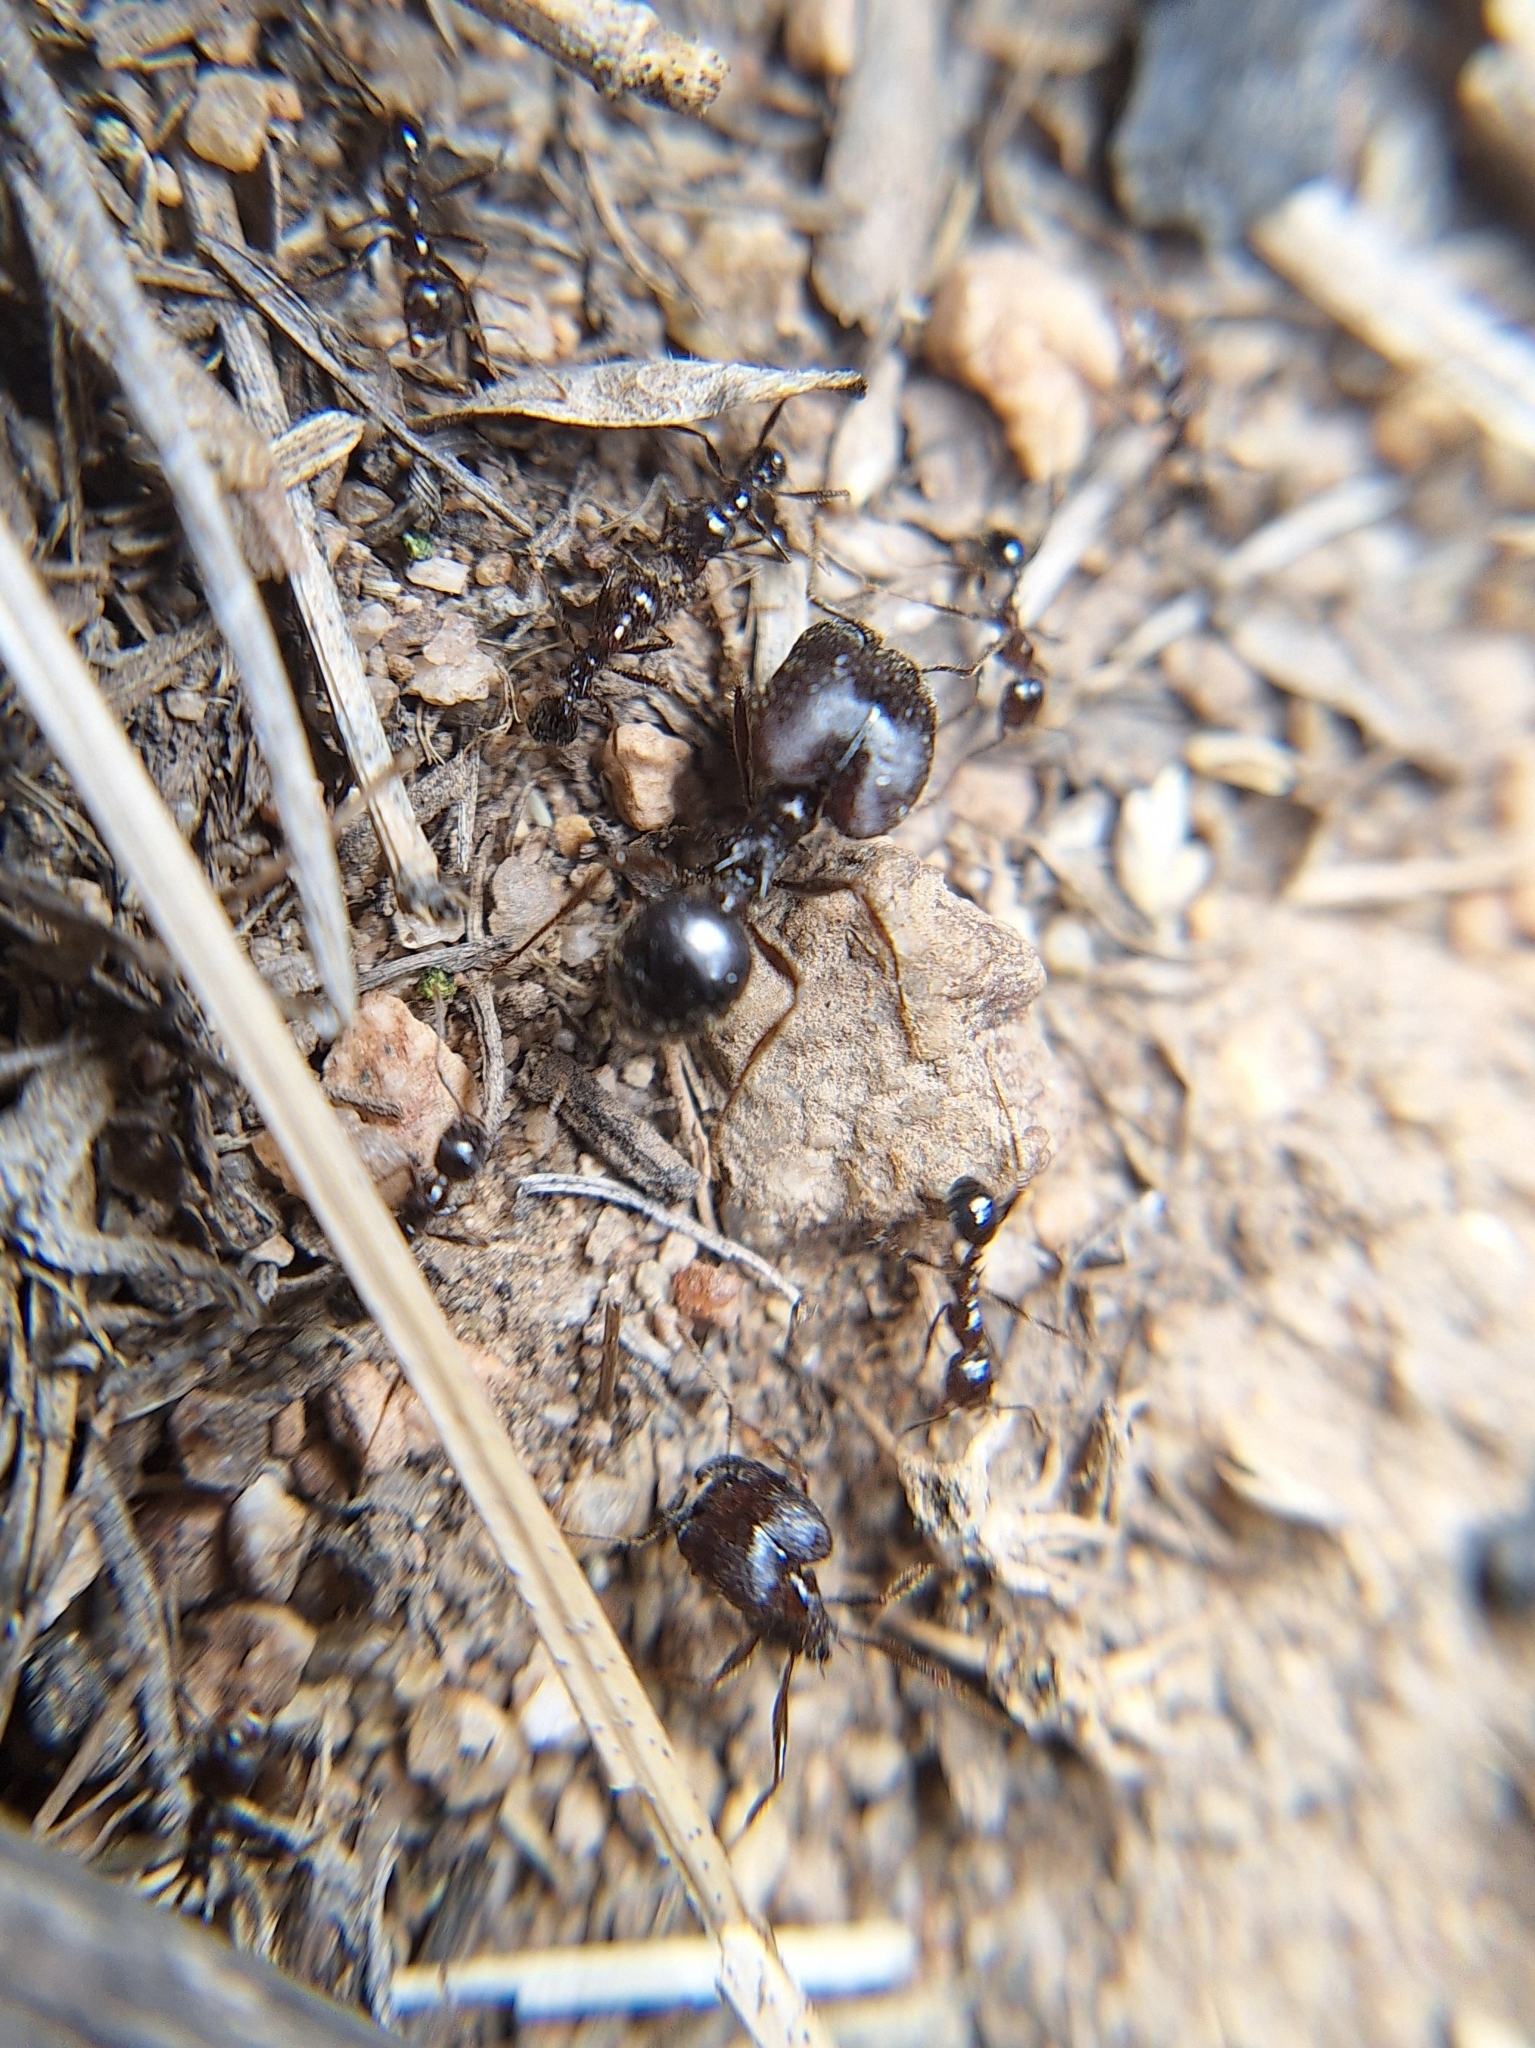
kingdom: Animalia
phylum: Arthropoda
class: Insecta
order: Hymenoptera
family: Formicidae
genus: Pheidole
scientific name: Pheidole rhea
